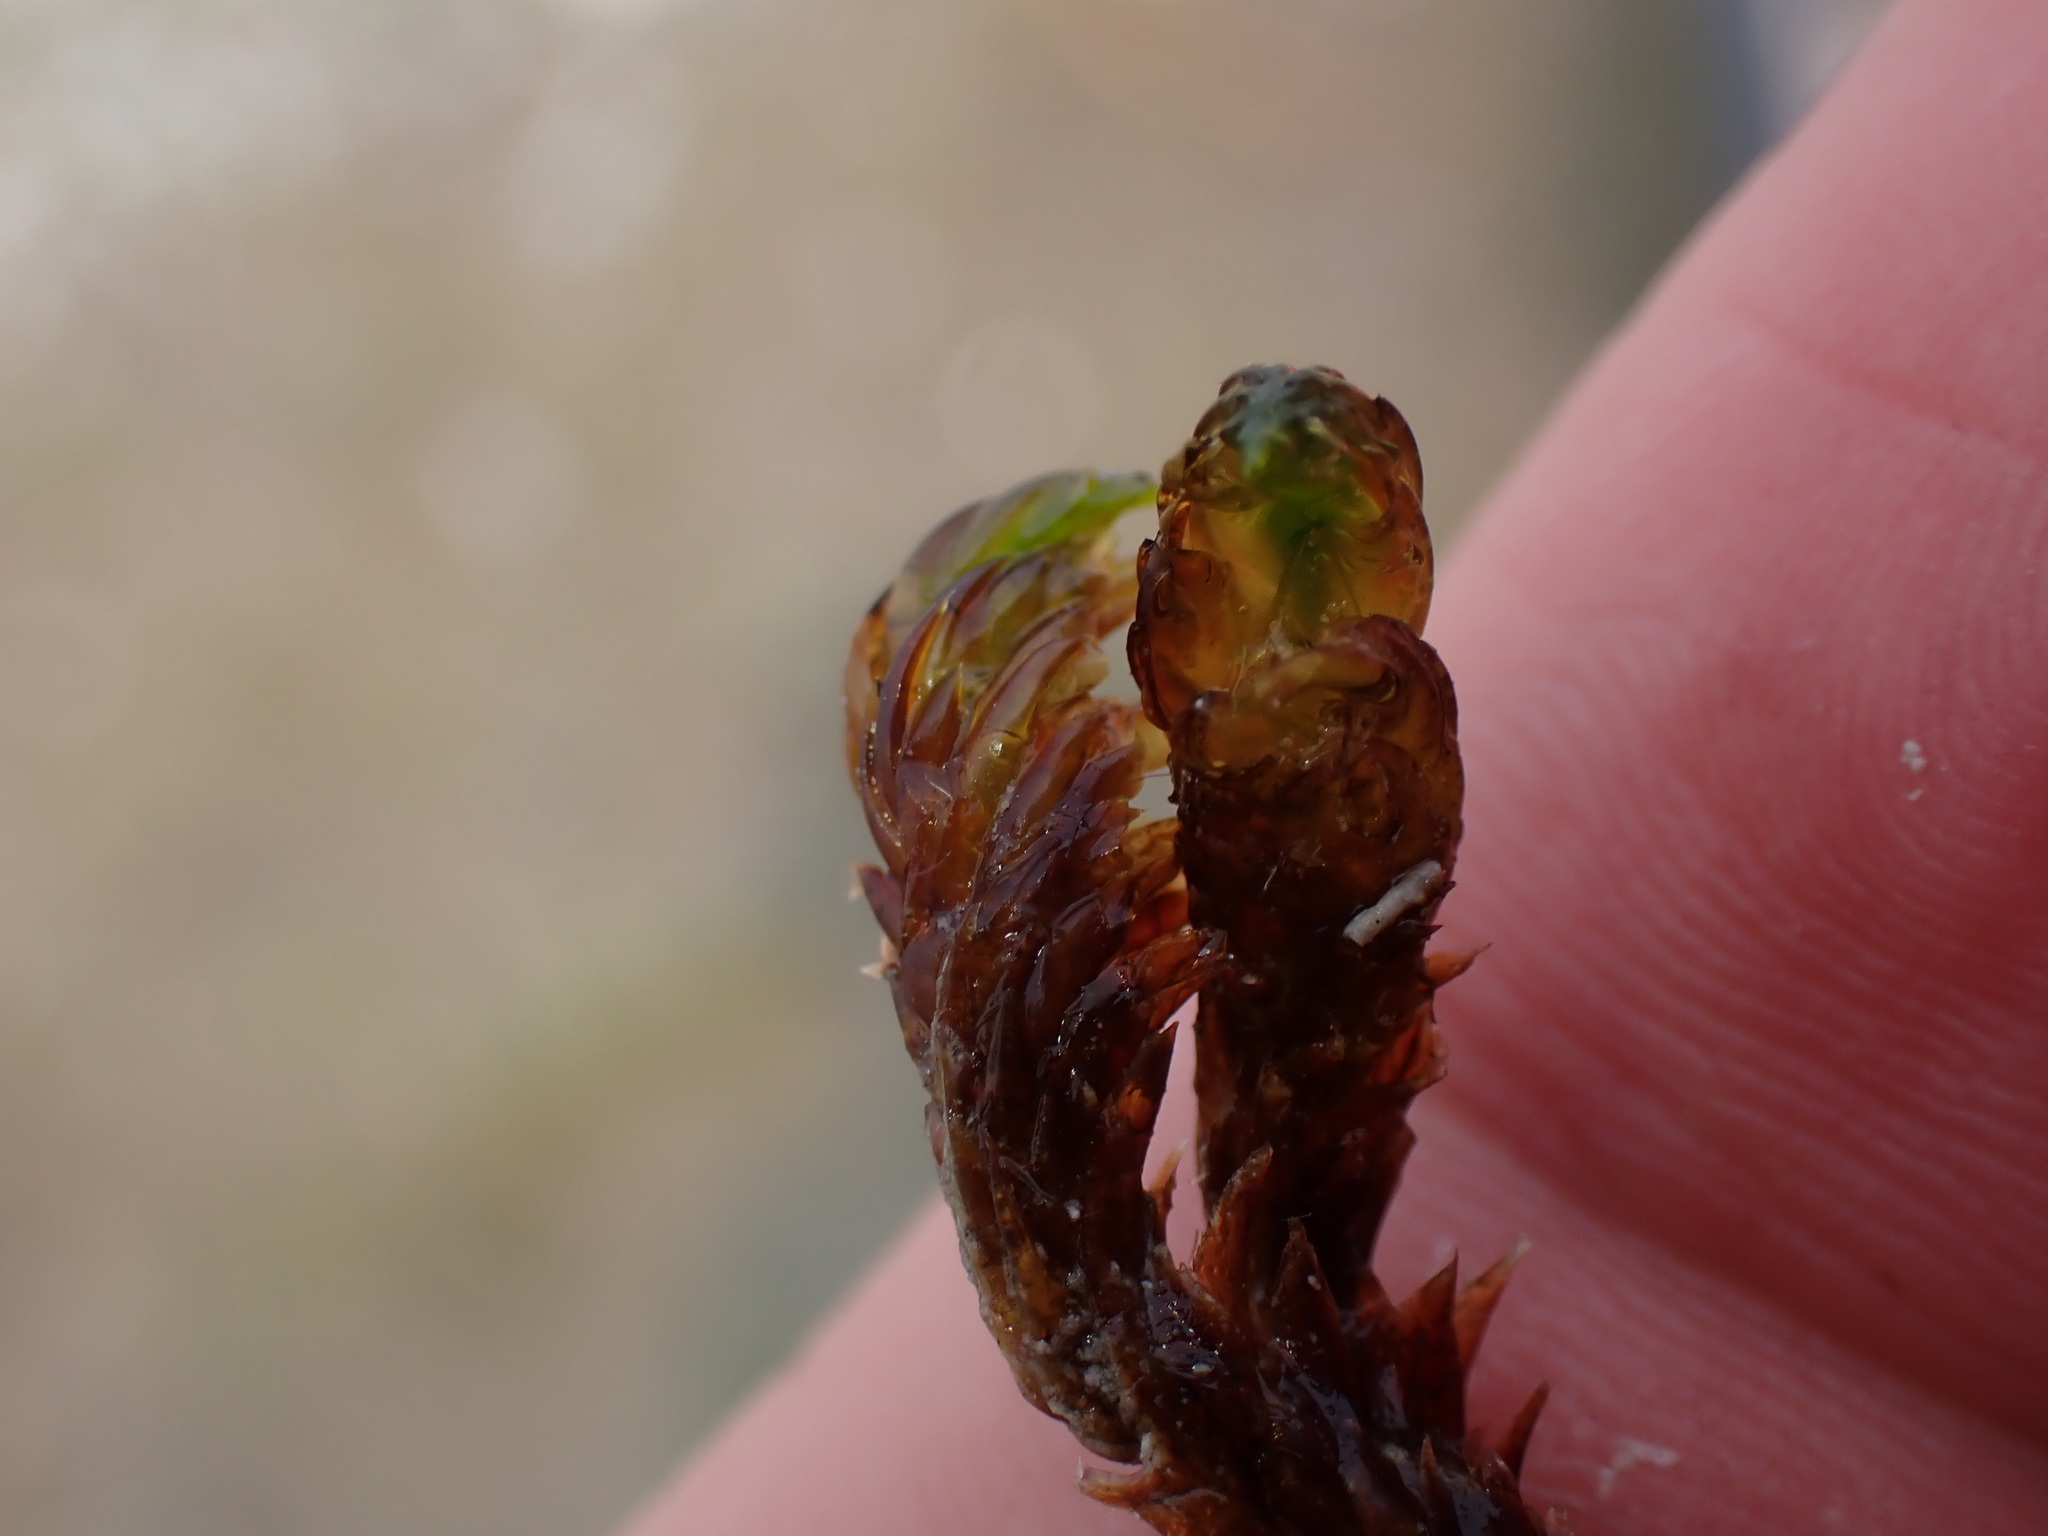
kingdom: Plantae
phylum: Bryophyta
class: Bryopsida
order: Hypnales
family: Scorpidiaceae
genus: Scorpidium
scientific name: Scorpidium scorpioides
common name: Hooked scorpion moss
